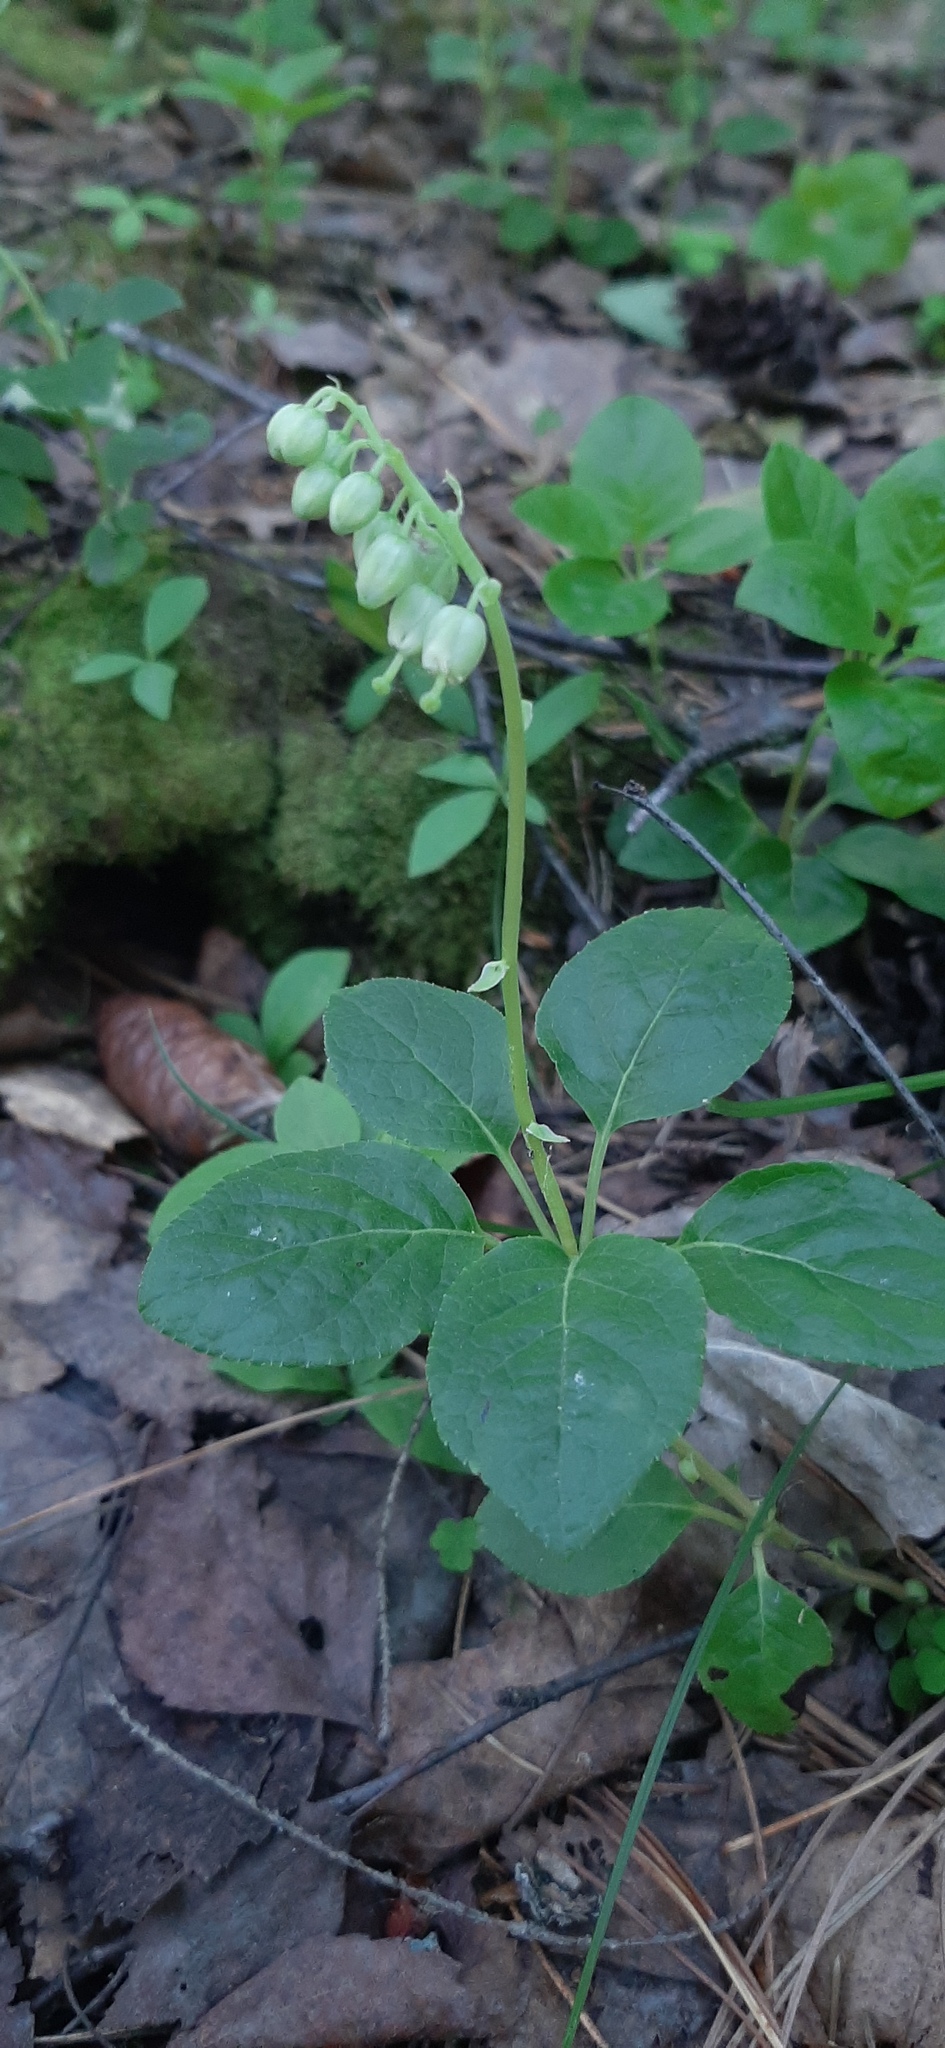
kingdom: Plantae
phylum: Tracheophyta
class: Magnoliopsida
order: Ericales
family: Ericaceae
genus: Orthilia
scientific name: Orthilia secunda
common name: One-sided orthilia
